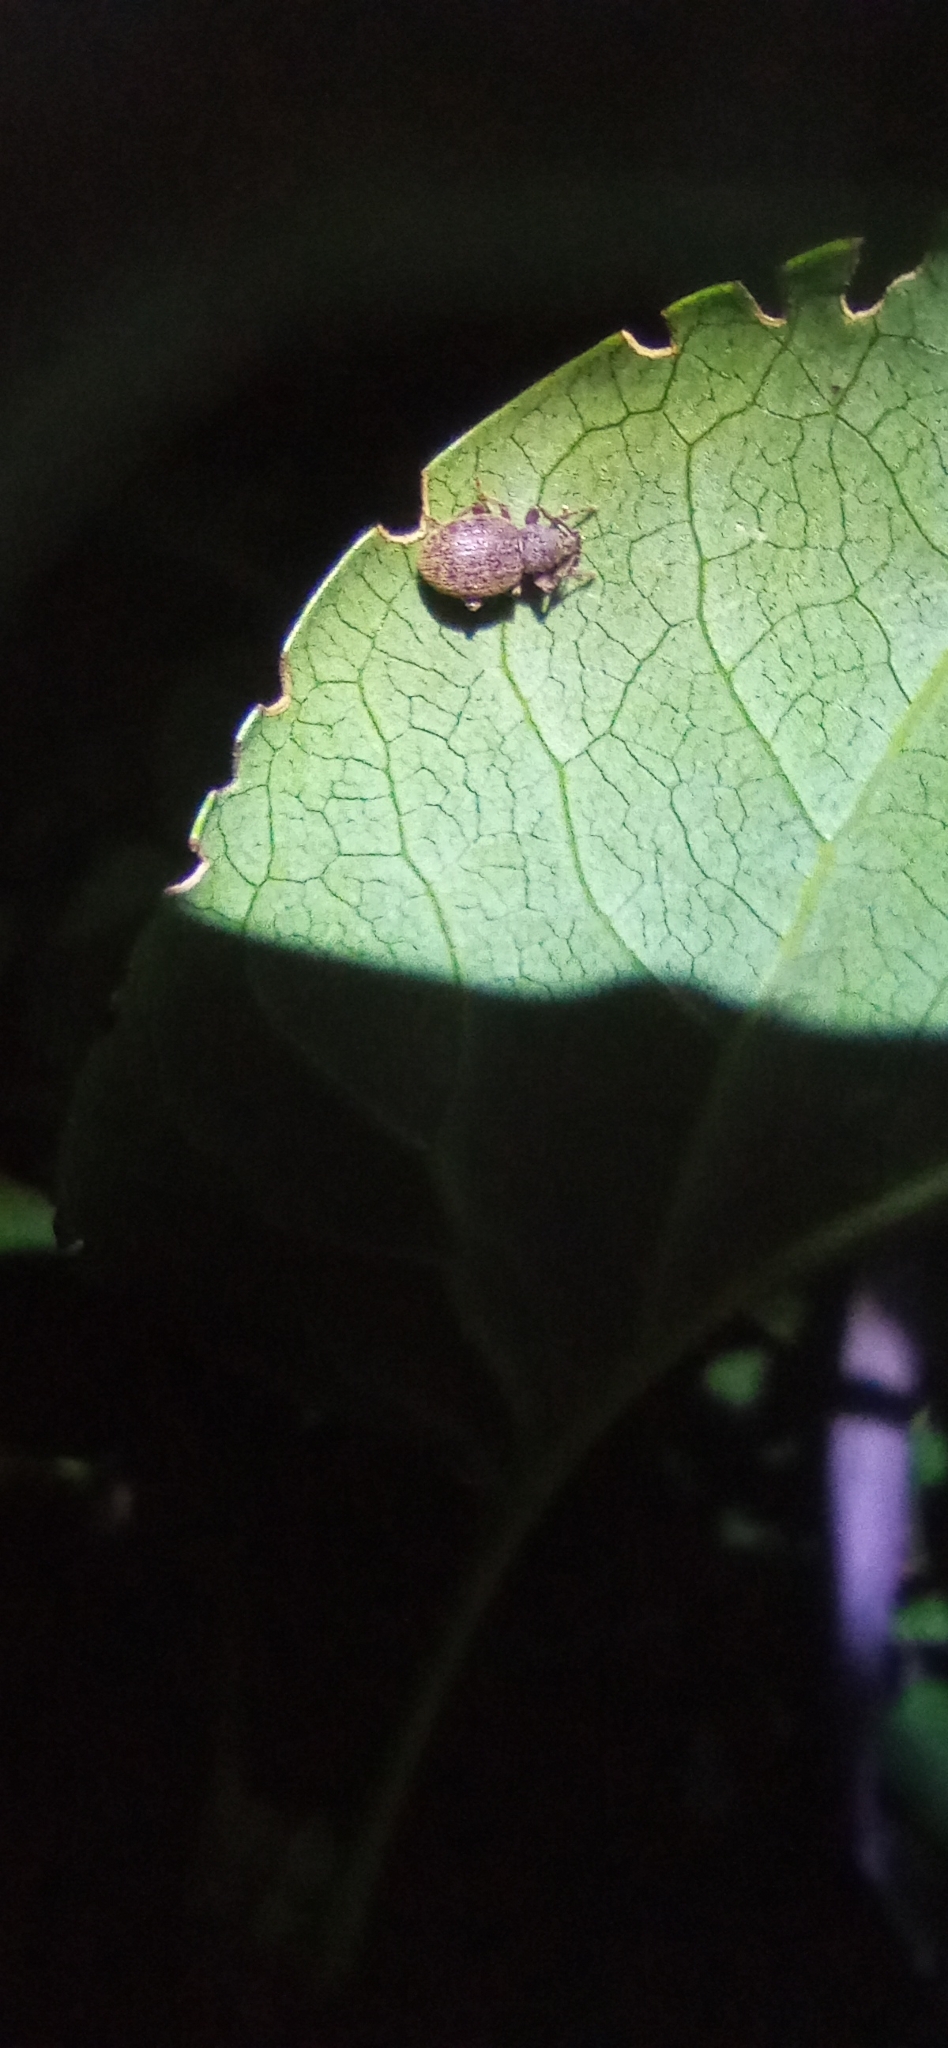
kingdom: Animalia
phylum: Arthropoda
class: Insecta
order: Coleoptera
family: Curculionidae
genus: Otiorhynchus
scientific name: Otiorhynchus smreczynskii
